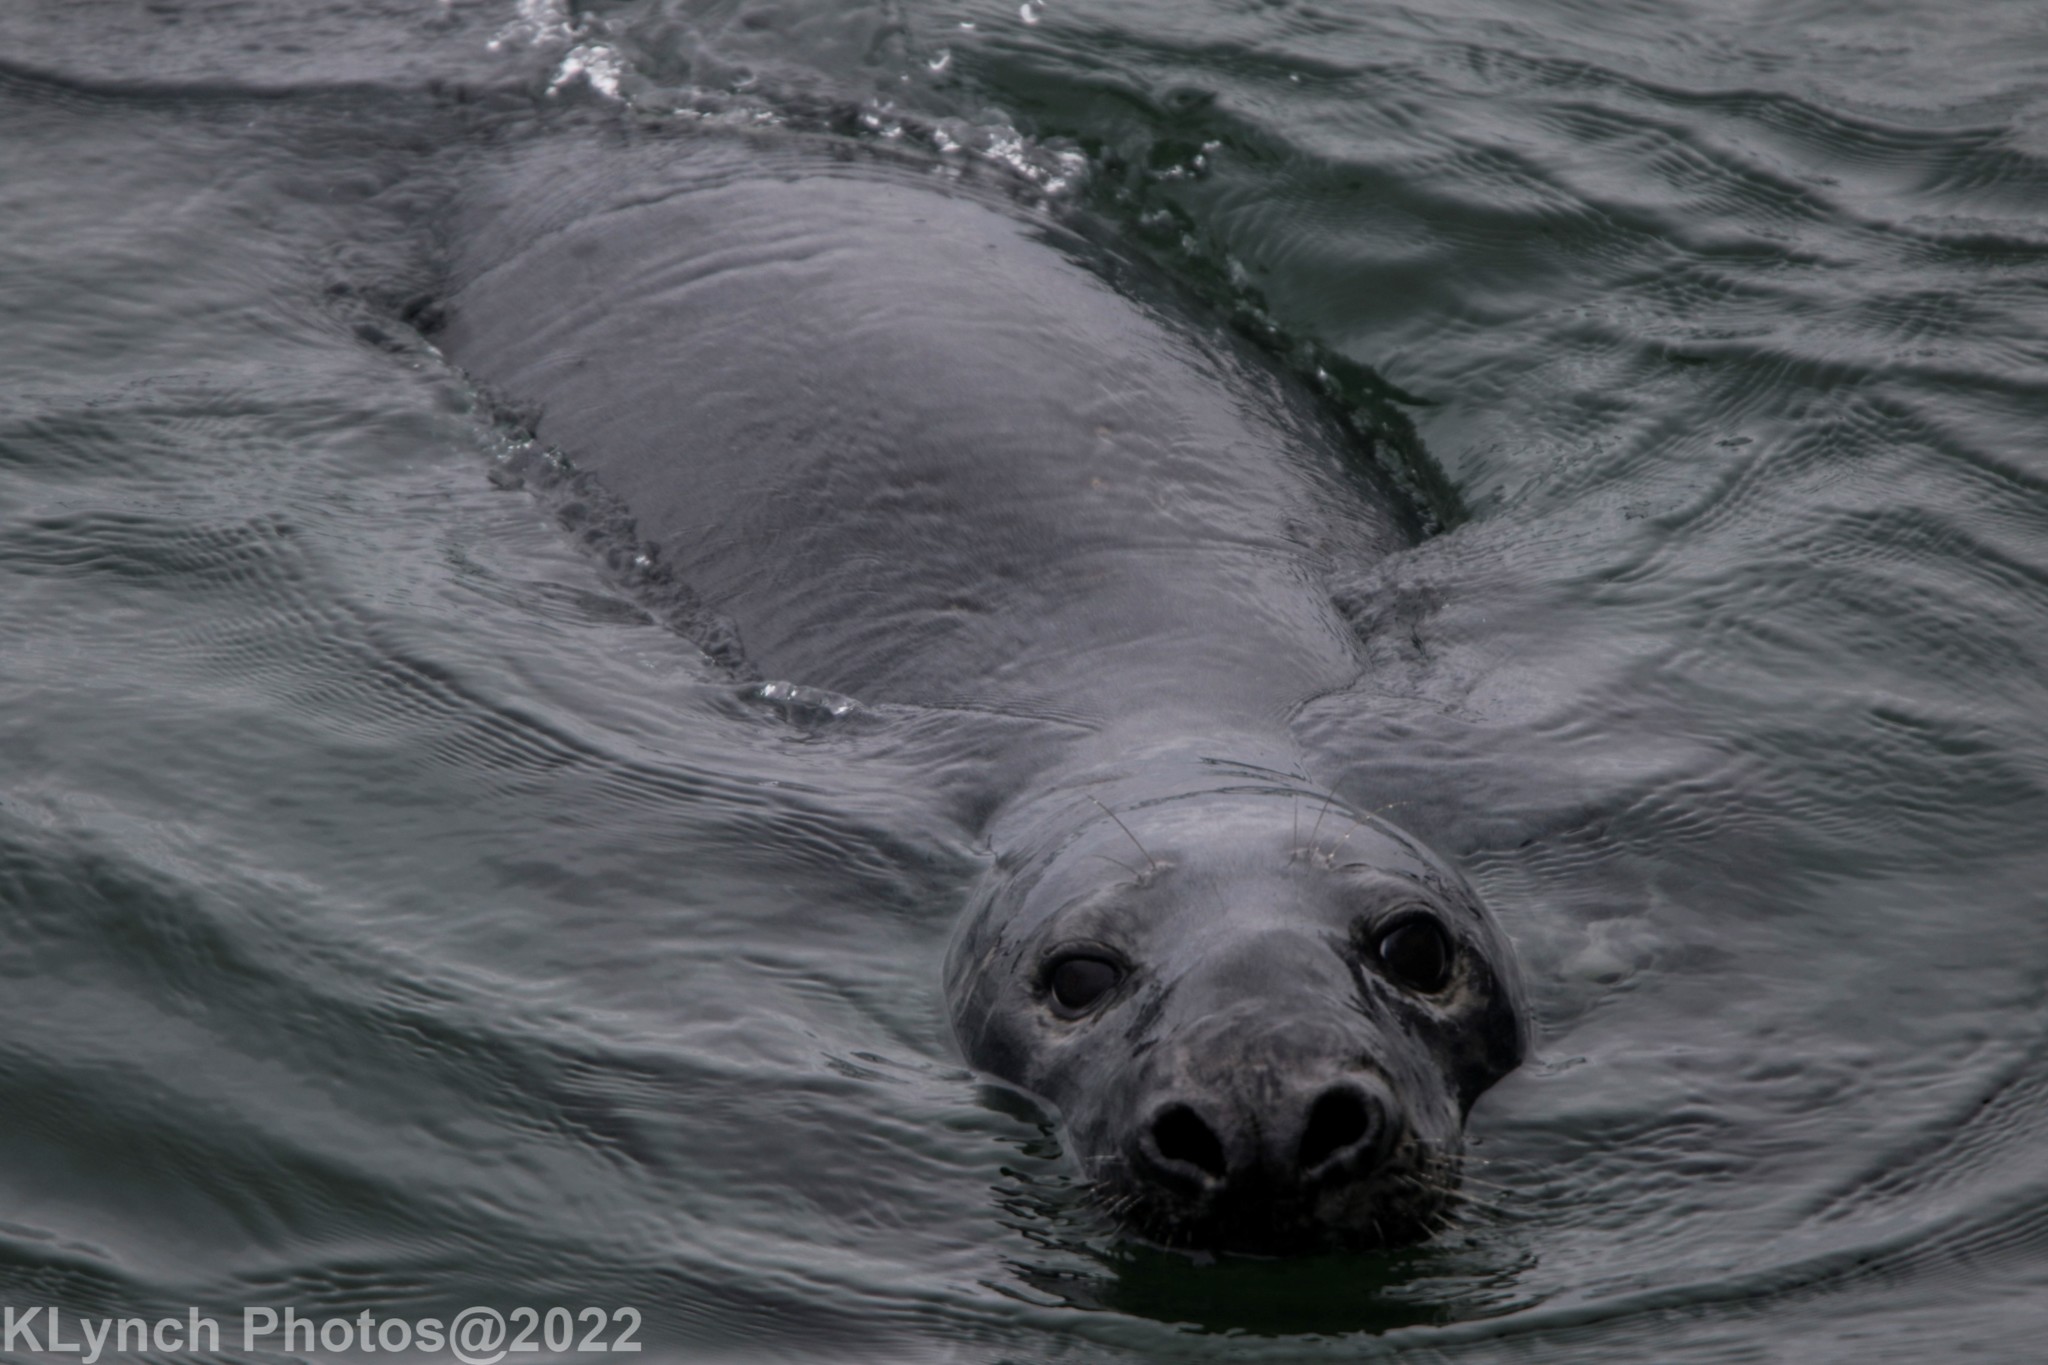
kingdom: Animalia
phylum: Chordata
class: Mammalia
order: Carnivora
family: Phocidae
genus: Halichoerus
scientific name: Halichoerus grypus
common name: Grey seal
